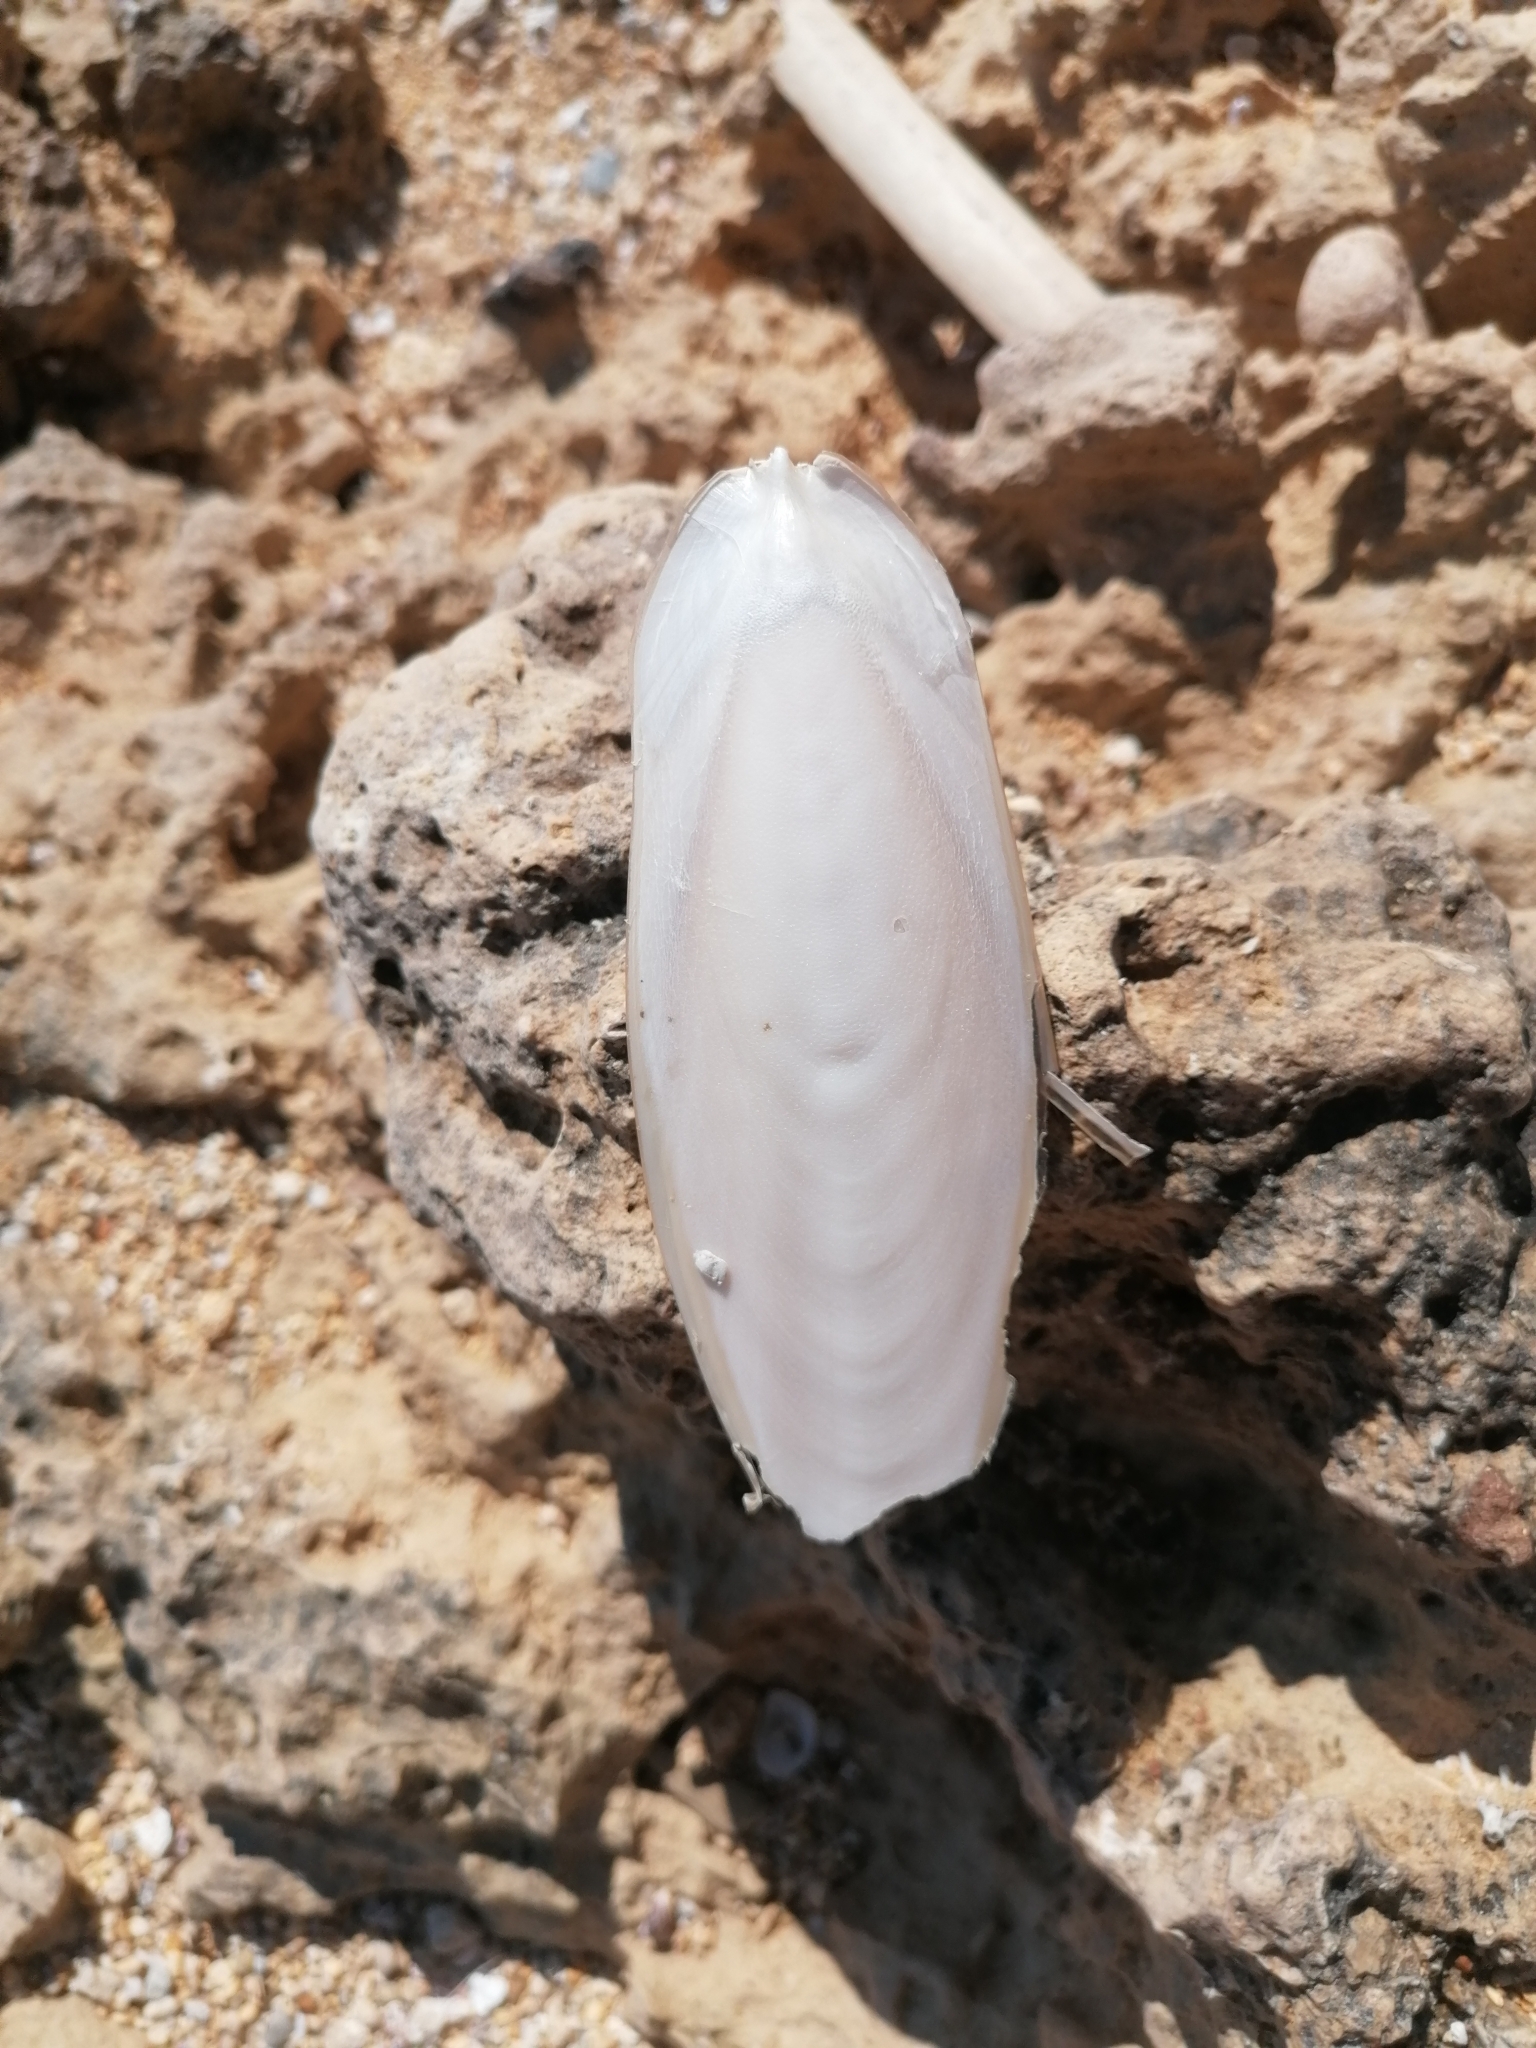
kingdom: Animalia
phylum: Mollusca
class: Cephalopoda
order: Sepiida
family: Sepiidae
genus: Sepia
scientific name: Sepia officinalis
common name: Common cuttlefish
